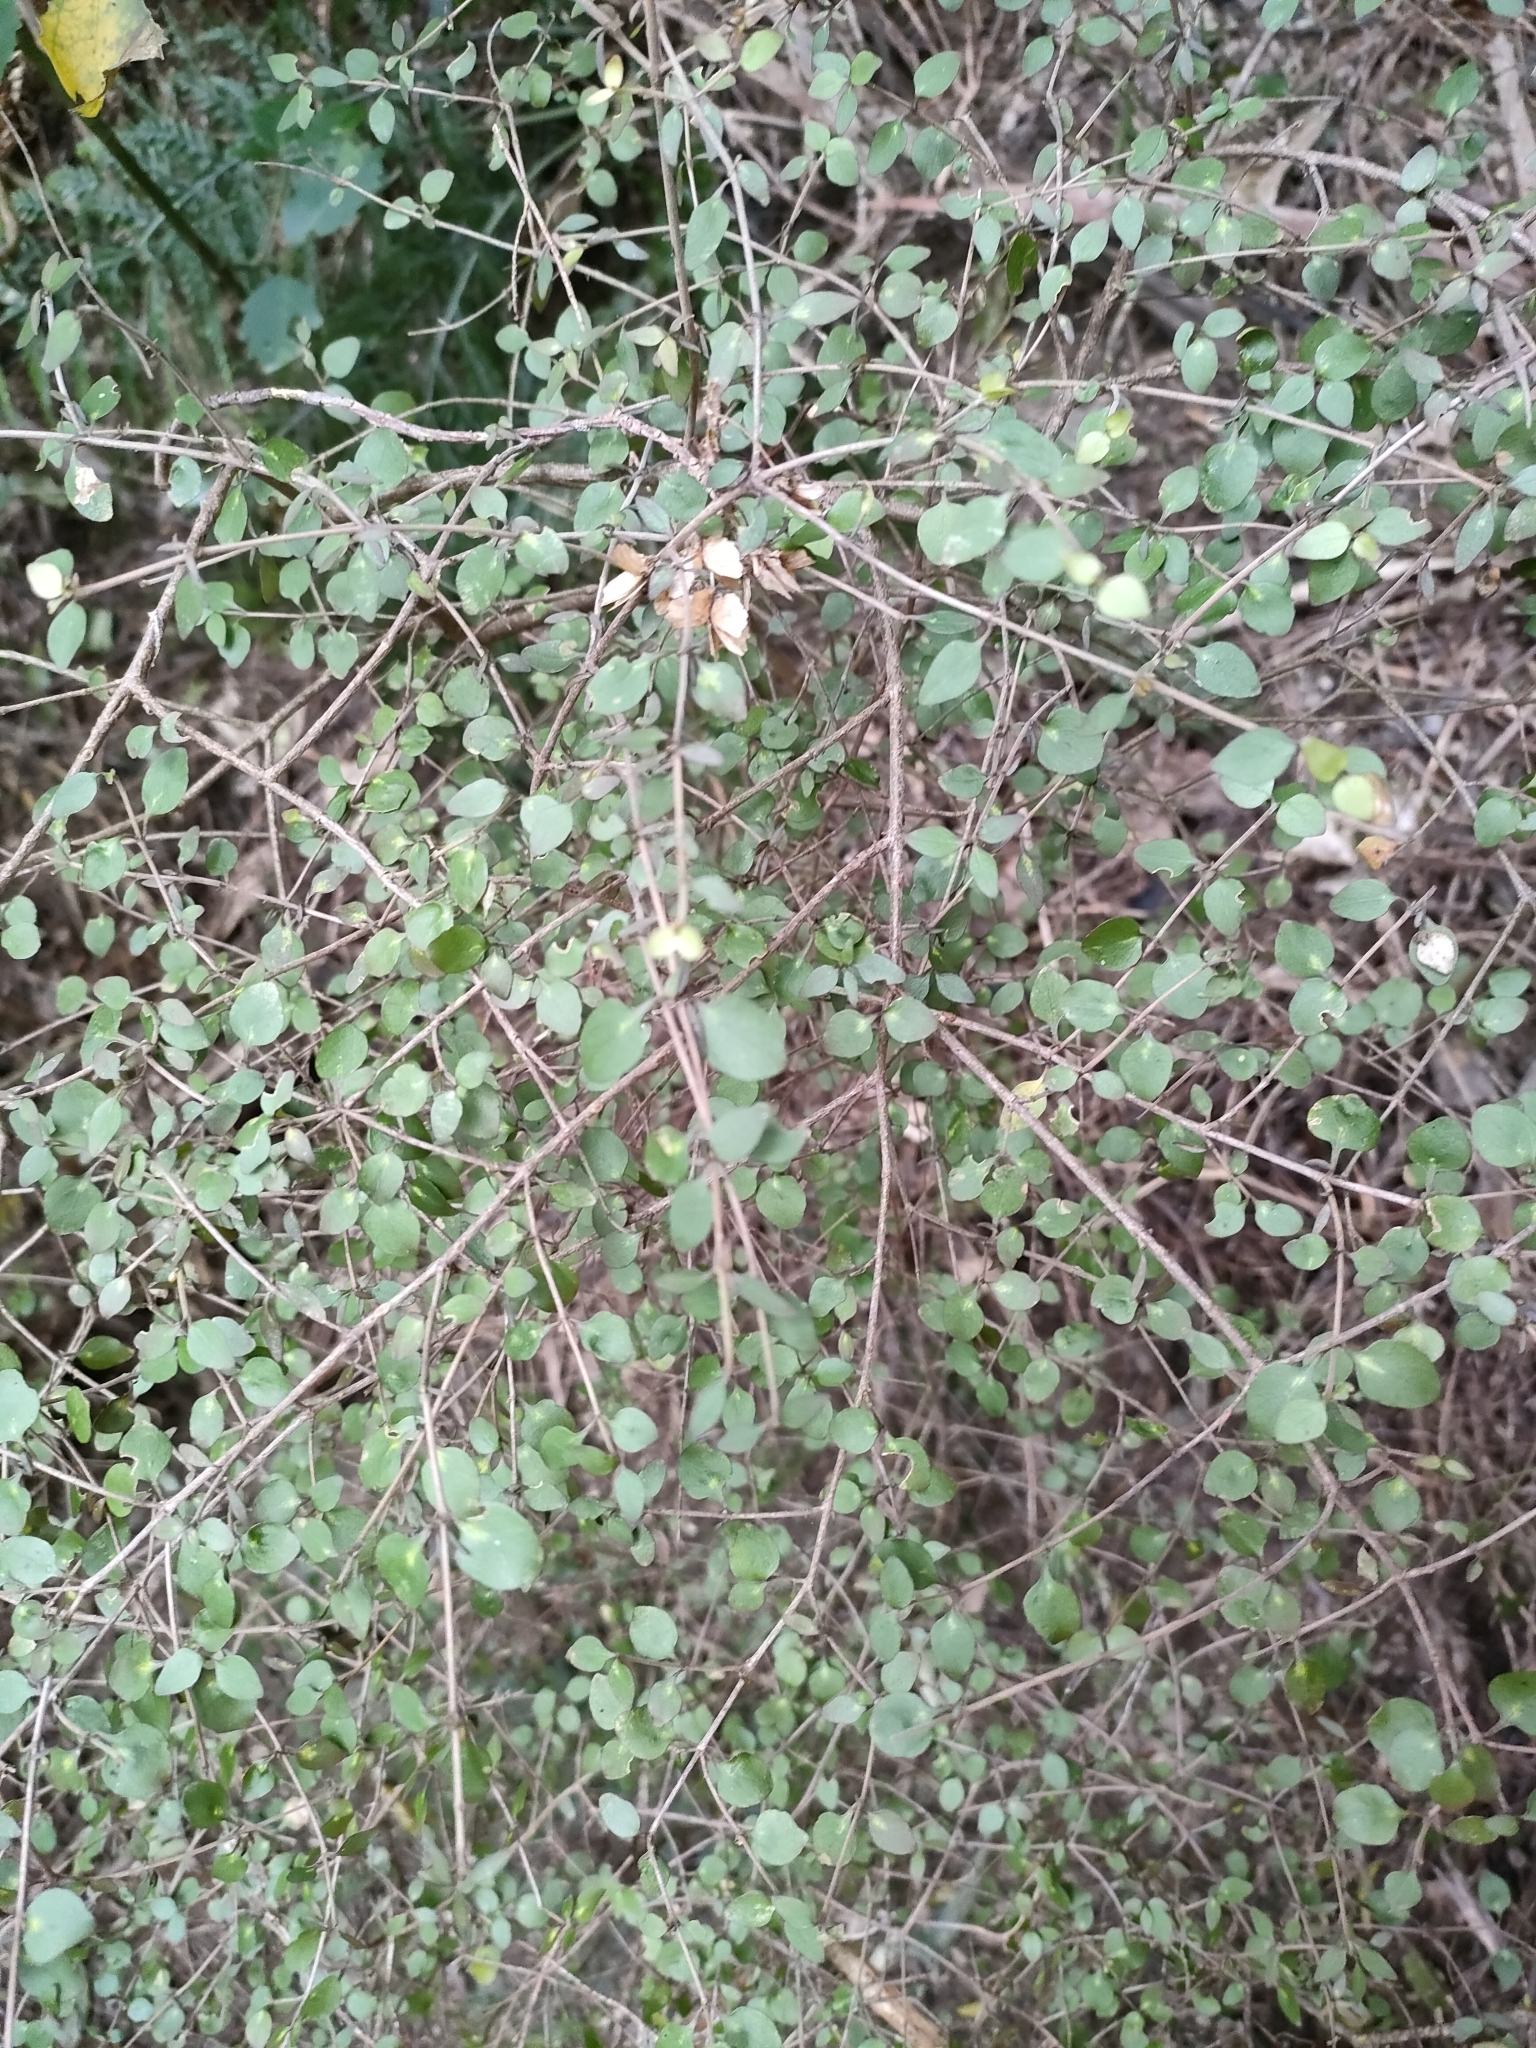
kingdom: Plantae
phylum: Tracheophyta
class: Magnoliopsida
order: Gentianales
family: Rubiaceae
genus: Coprosma
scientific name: Coprosma rhamnoides
